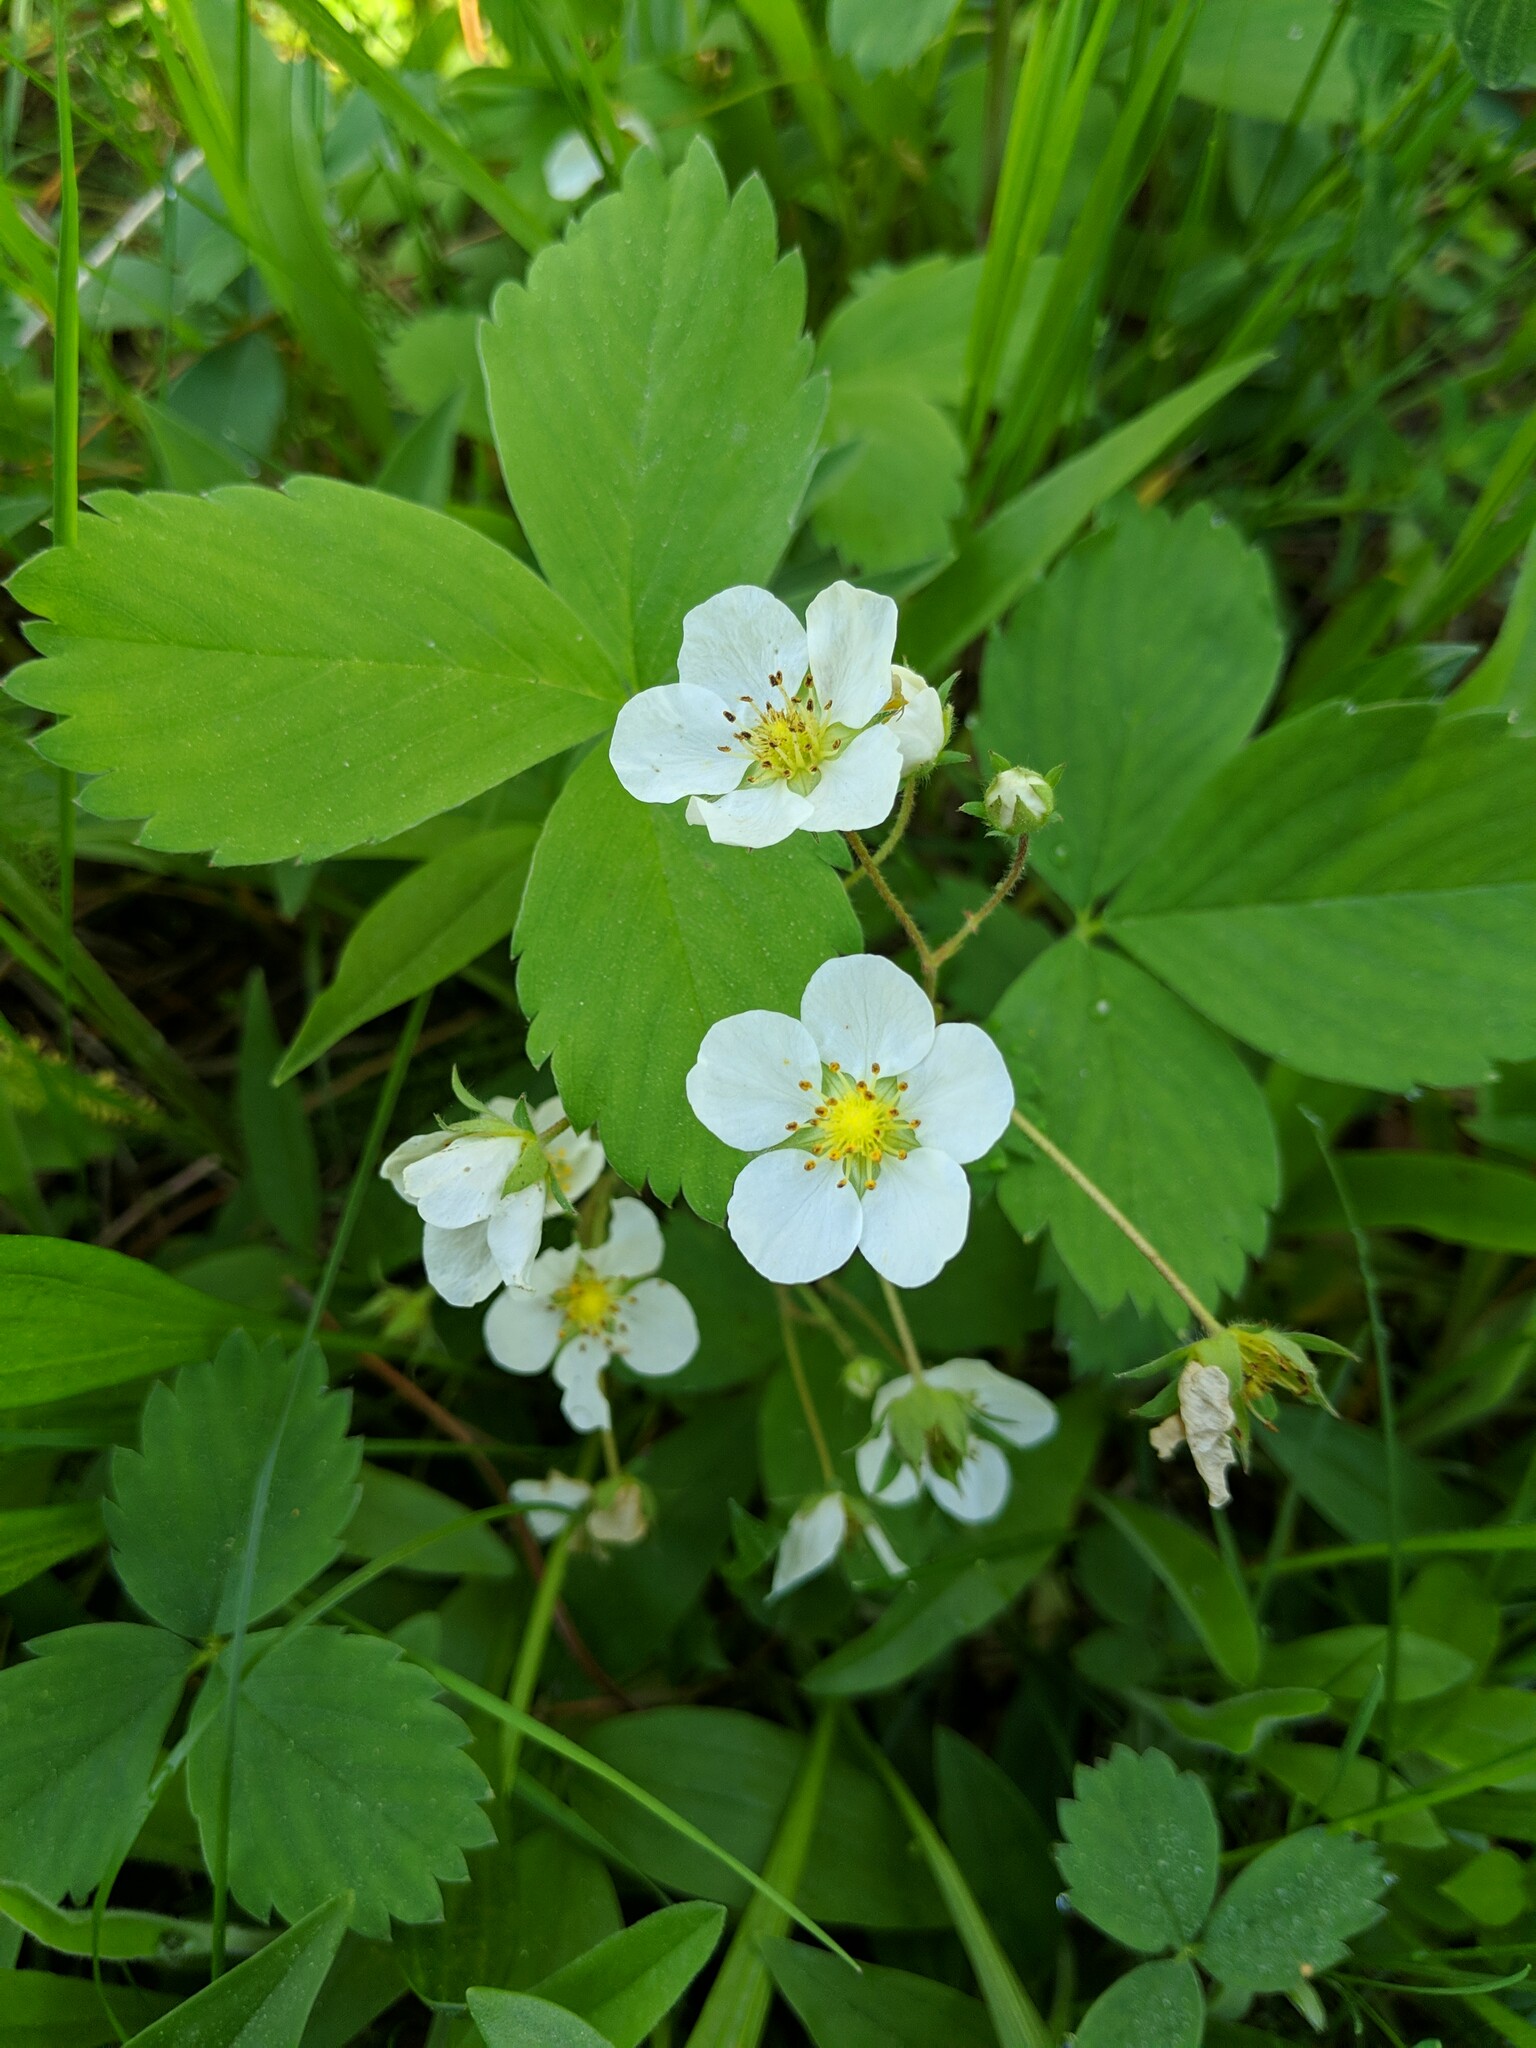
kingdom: Plantae
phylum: Tracheophyta
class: Magnoliopsida
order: Rosales
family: Rosaceae
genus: Fragaria
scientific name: Fragaria virginiana
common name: Thickleaved wild strawberry
